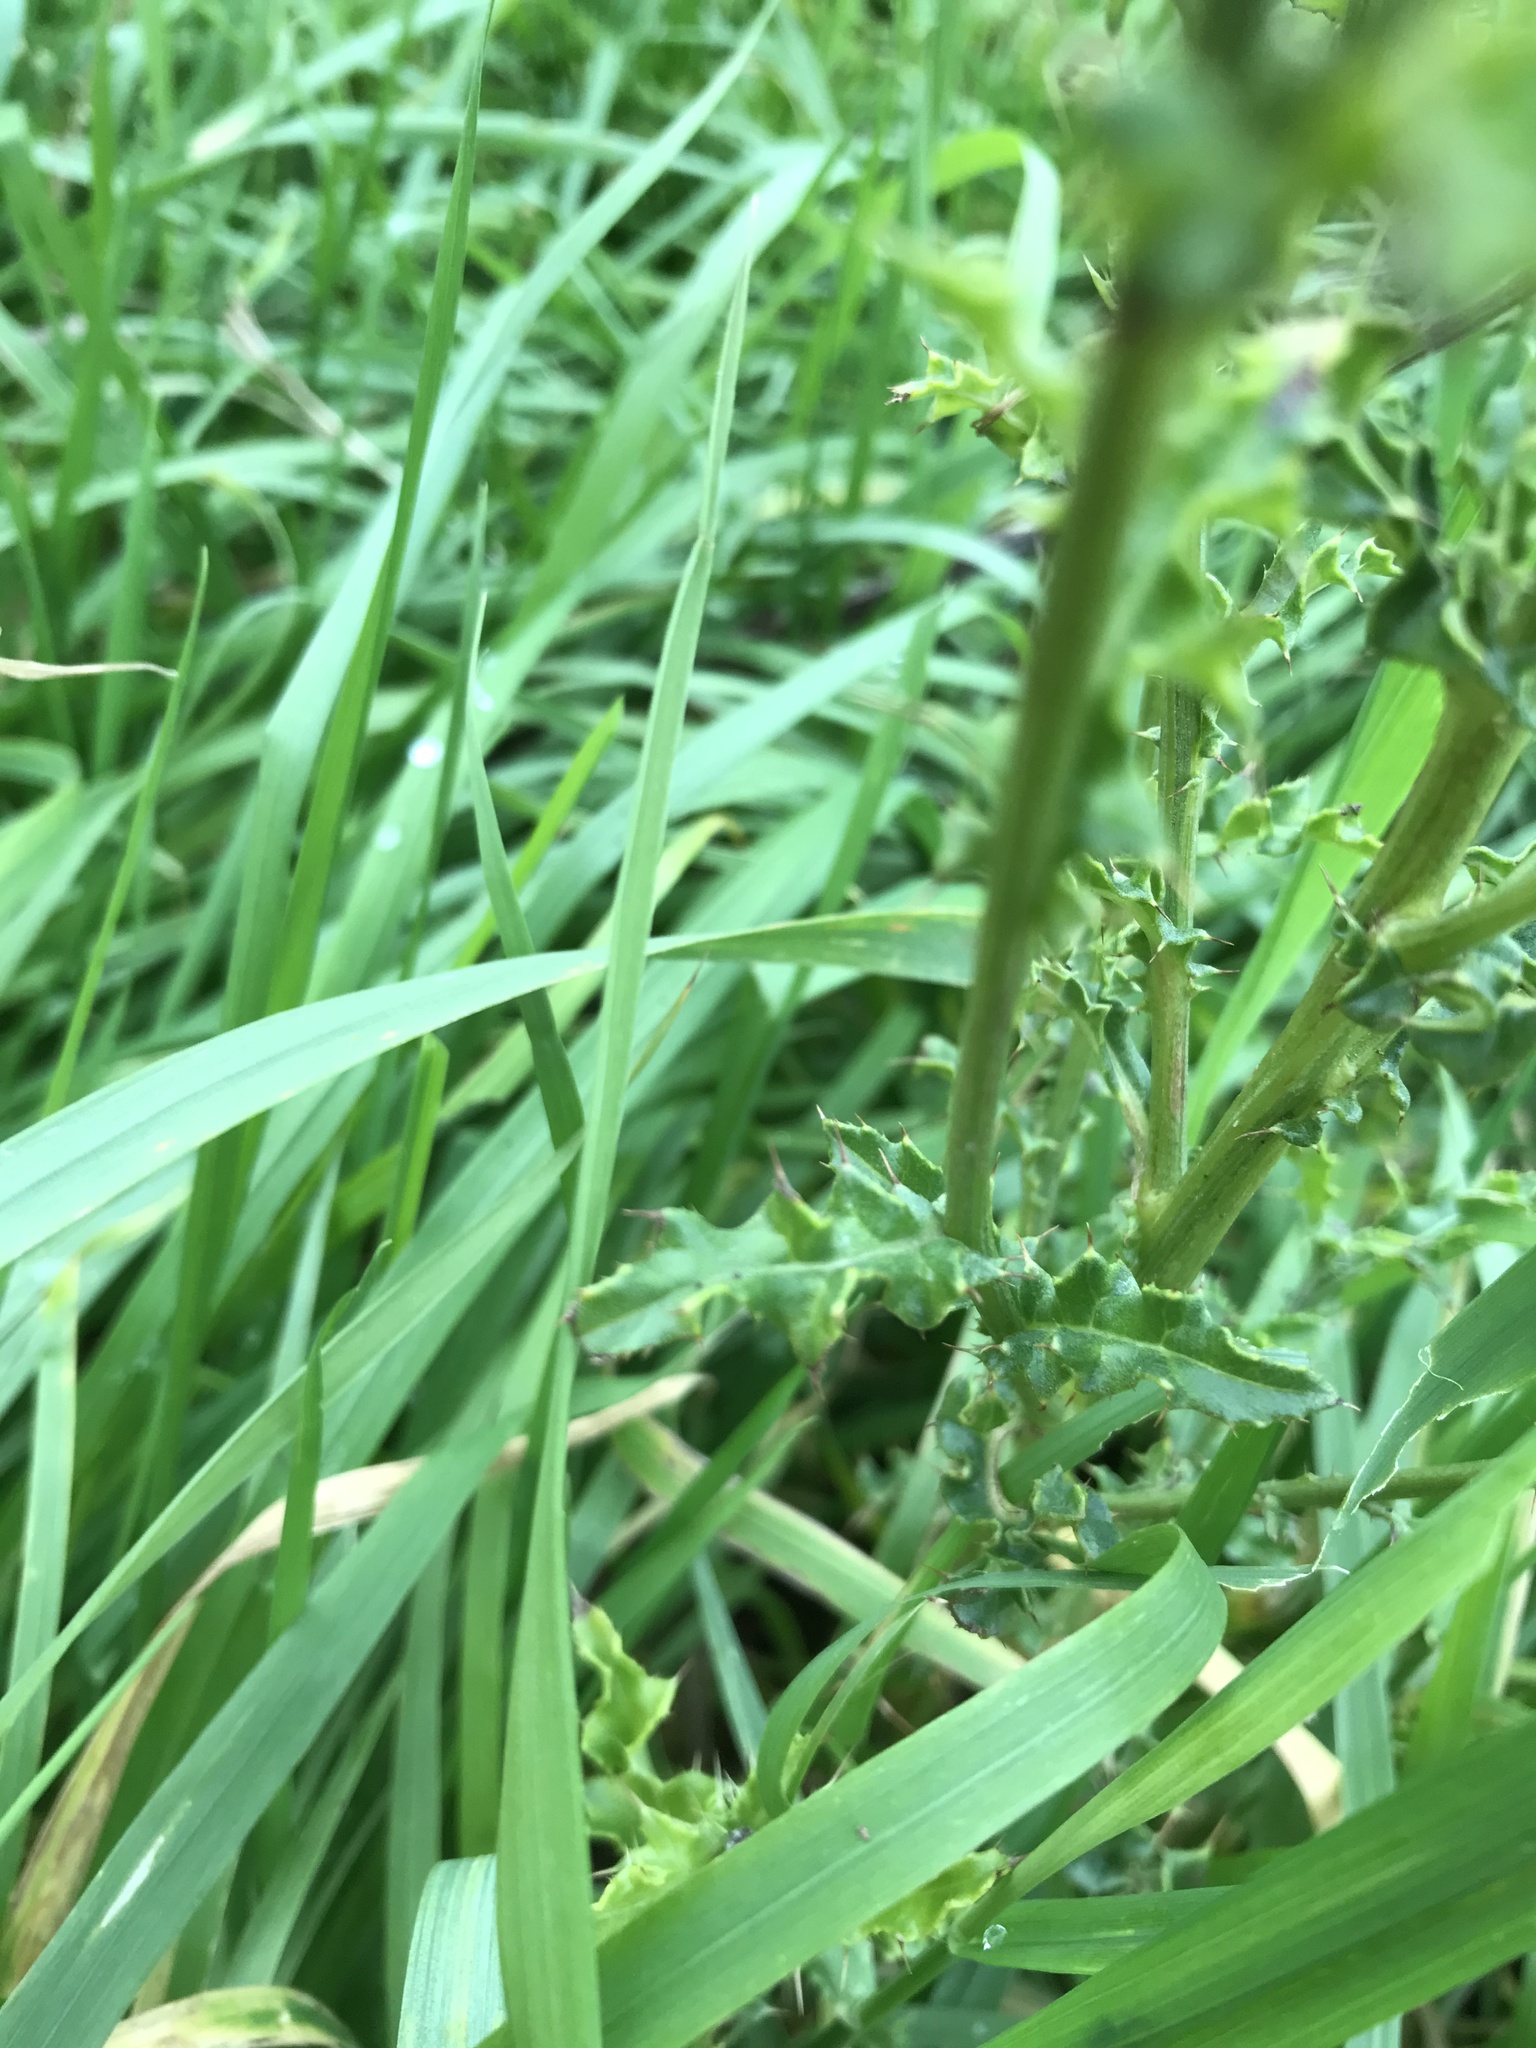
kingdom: Plantae
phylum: Tracheophyta
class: Magnoliopsida
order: Asterales
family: Asteraceae
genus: Cirsium
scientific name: Cirsium arvense
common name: Creeping thistle
